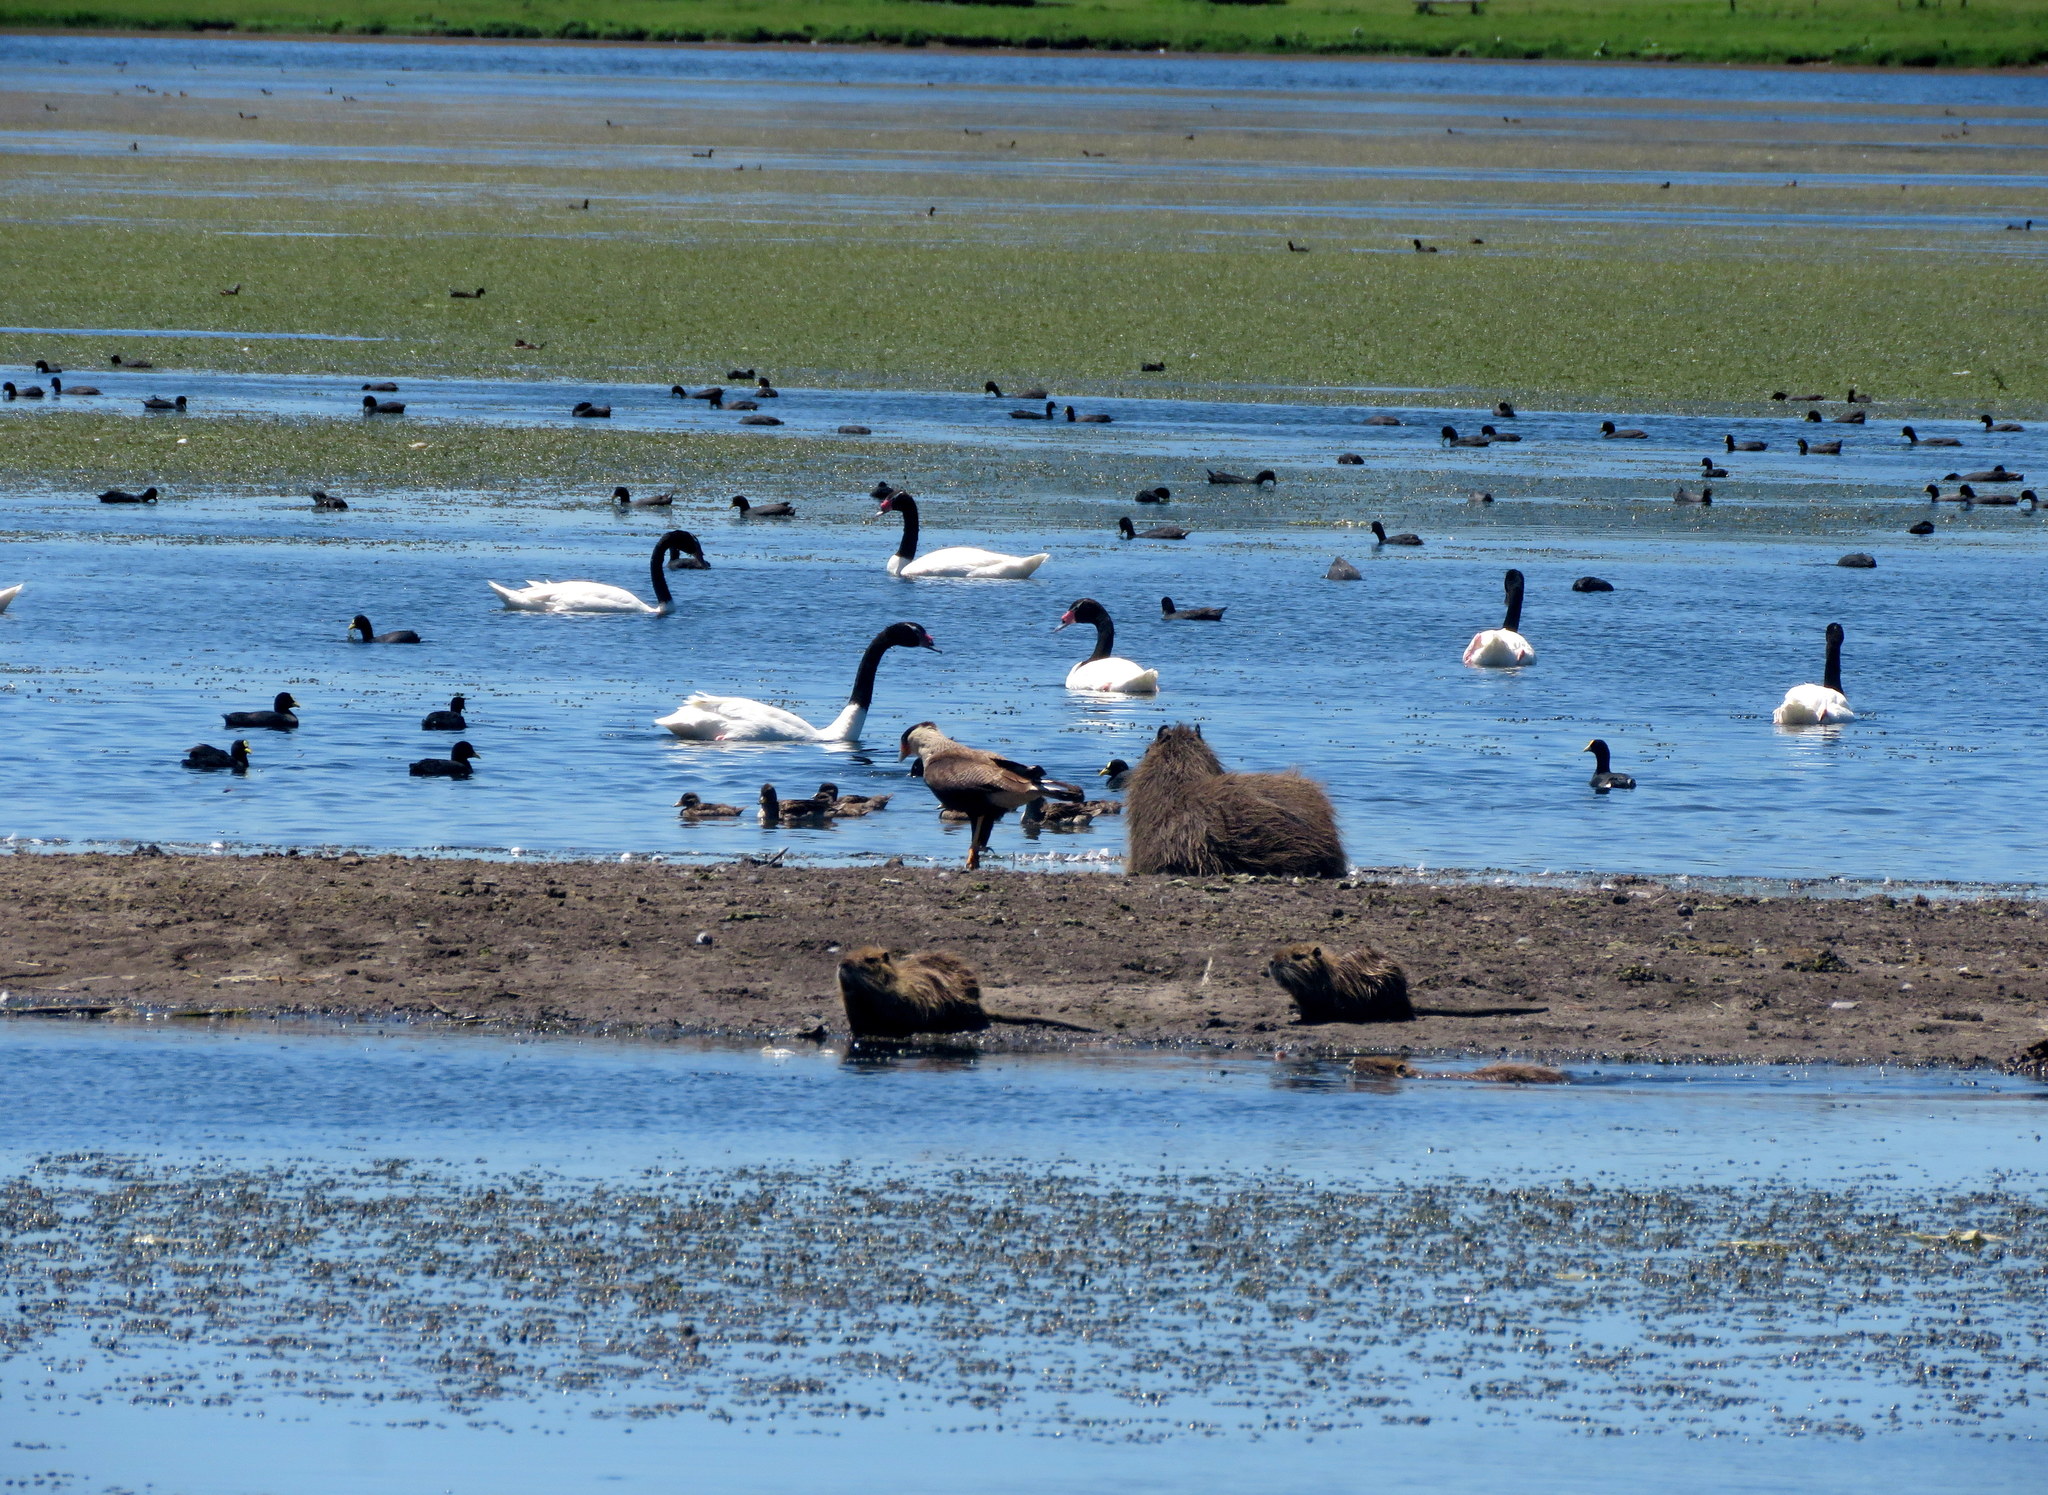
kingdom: Animalia
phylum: Chordata
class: Mammalia
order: Rodentia
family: Caviidae
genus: Hydrochoerus
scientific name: Hydrochoerus hydrochaeris
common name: Capybara
